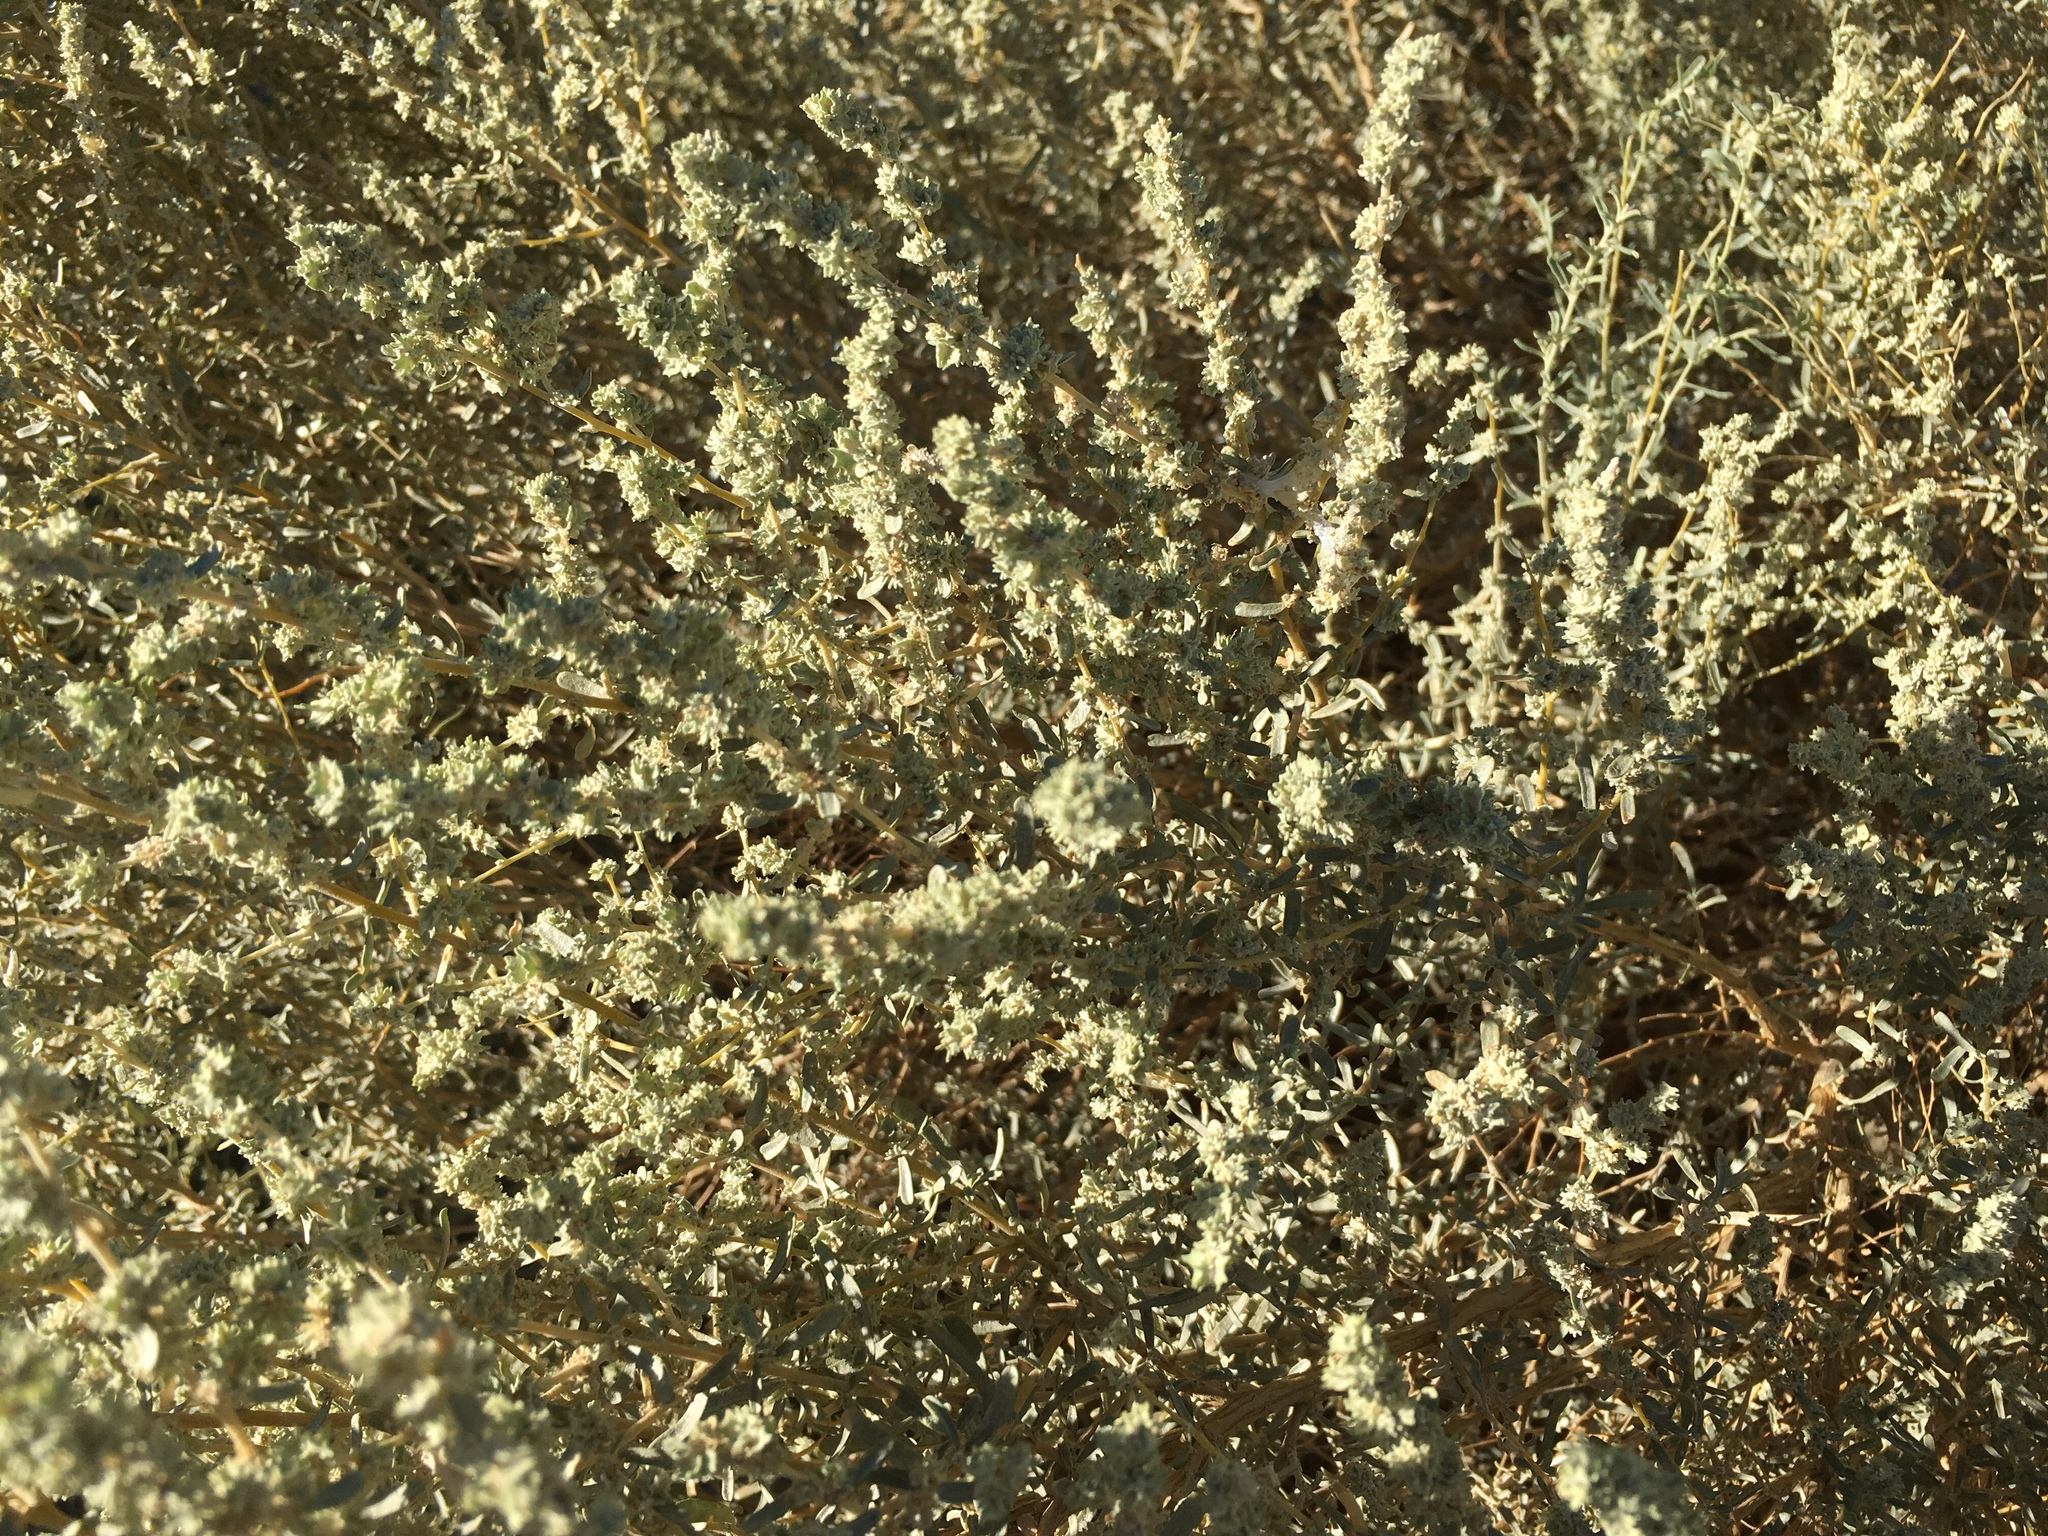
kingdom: Plantae
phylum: Tracheophyta
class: Magnoliopsida
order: Caryophyllales
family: Amaranthaceae
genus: Atriplex
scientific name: Atriplex canescens
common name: Four-wing saltbush
